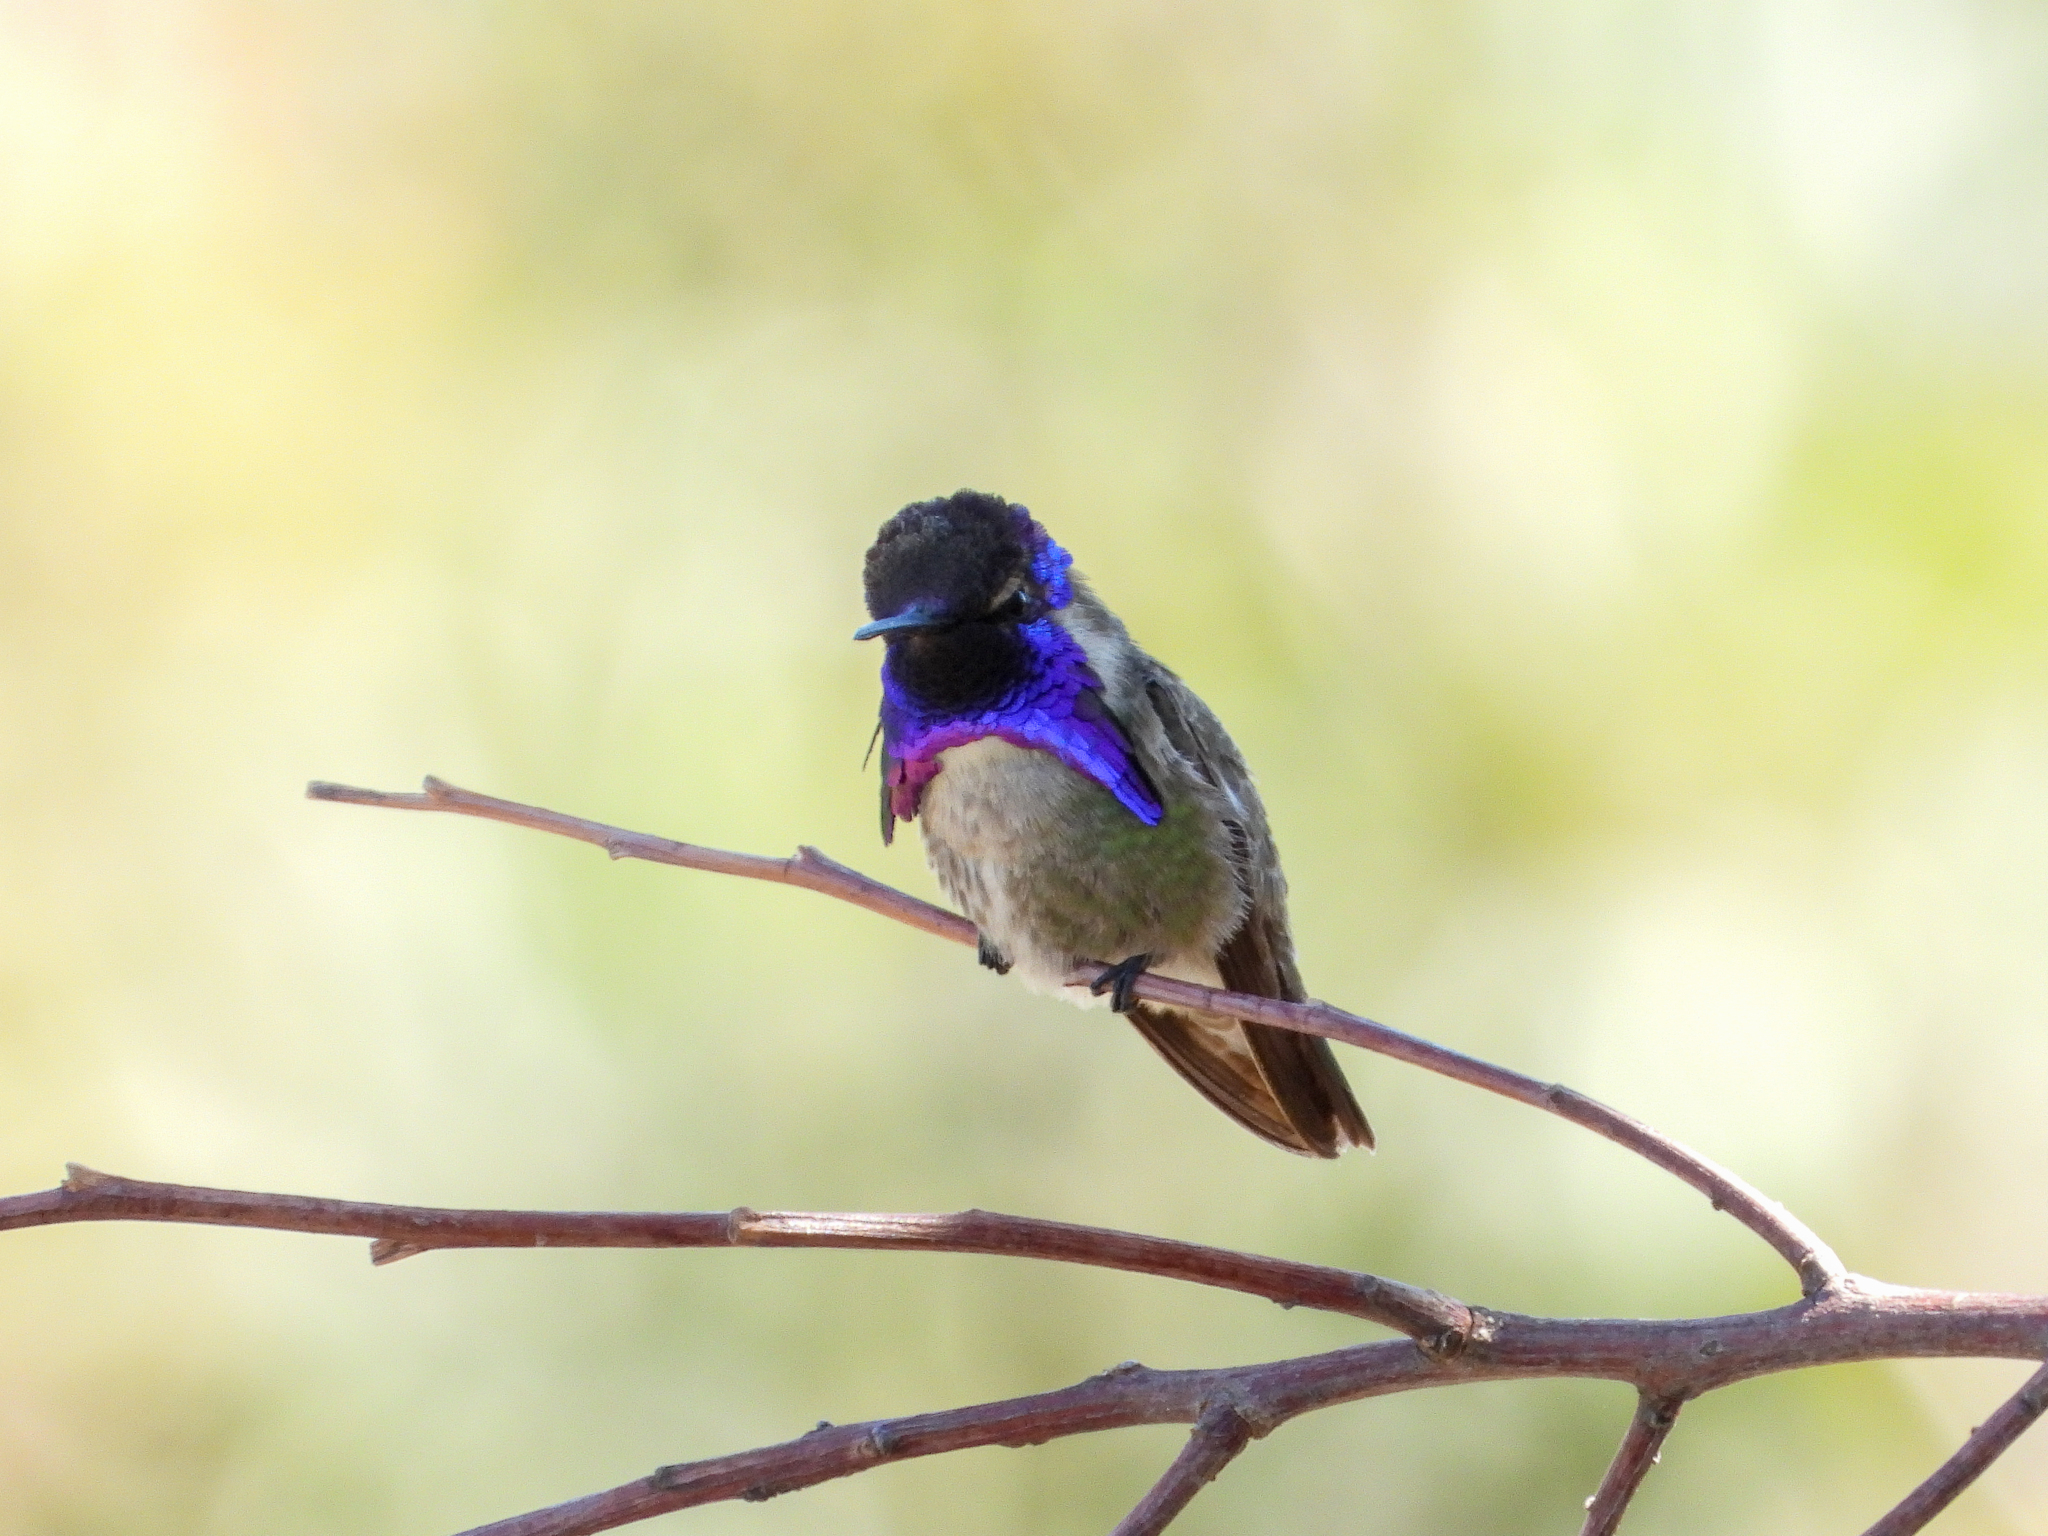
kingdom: Animalia
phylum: Chordata
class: Aves
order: Apodiformes
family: Trochilidae
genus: Calypte
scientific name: Calypte costae
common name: Costa's hummingbird
